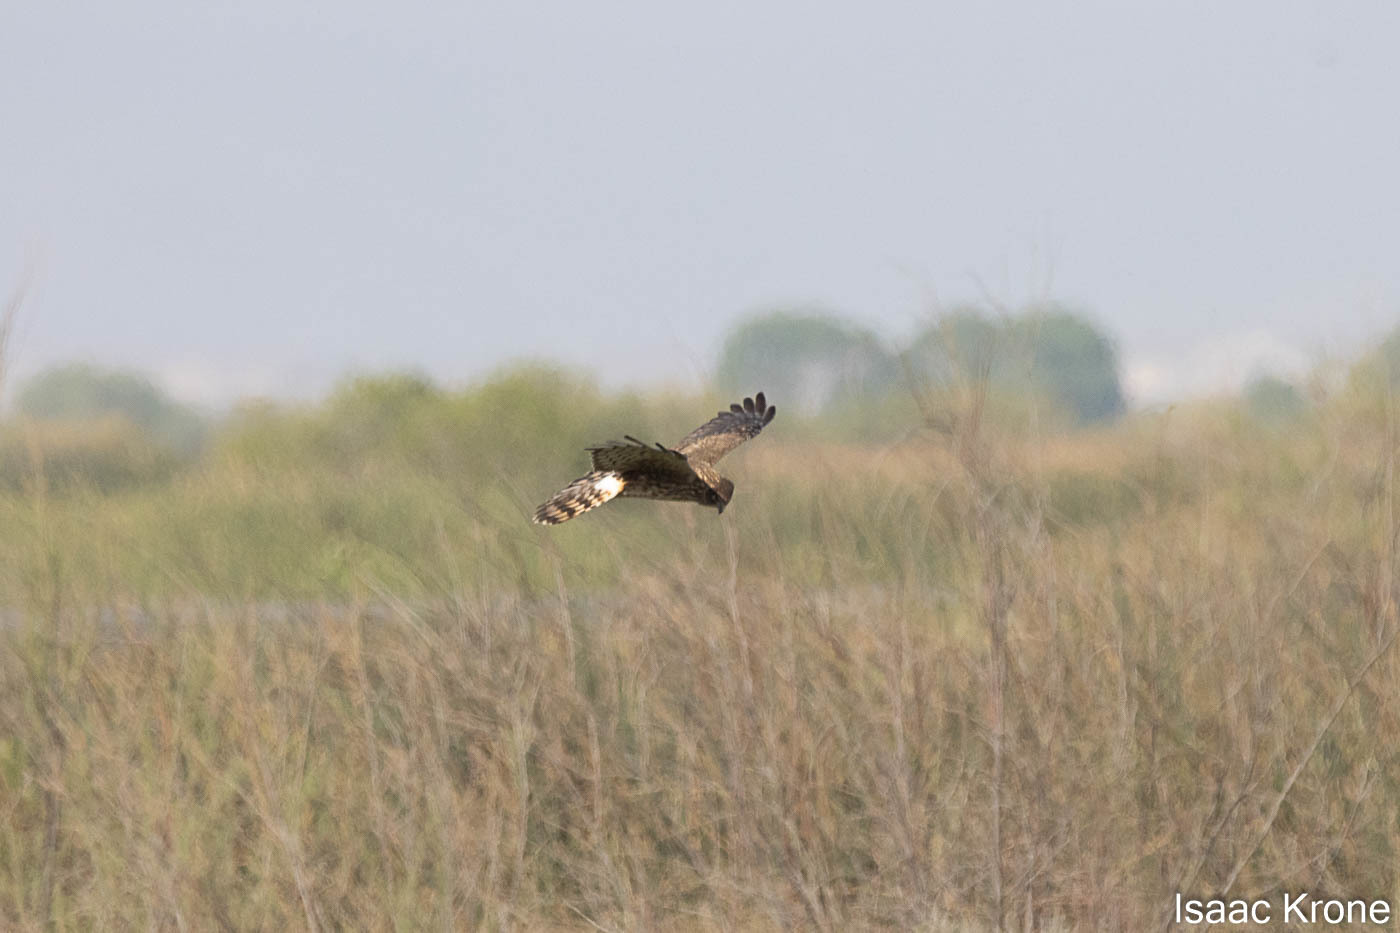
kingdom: Animalia
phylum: Chordata
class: Aves
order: Accipitriformes
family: Accipitridae
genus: Circus
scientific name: Circus cyaneus
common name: Hen harrier
